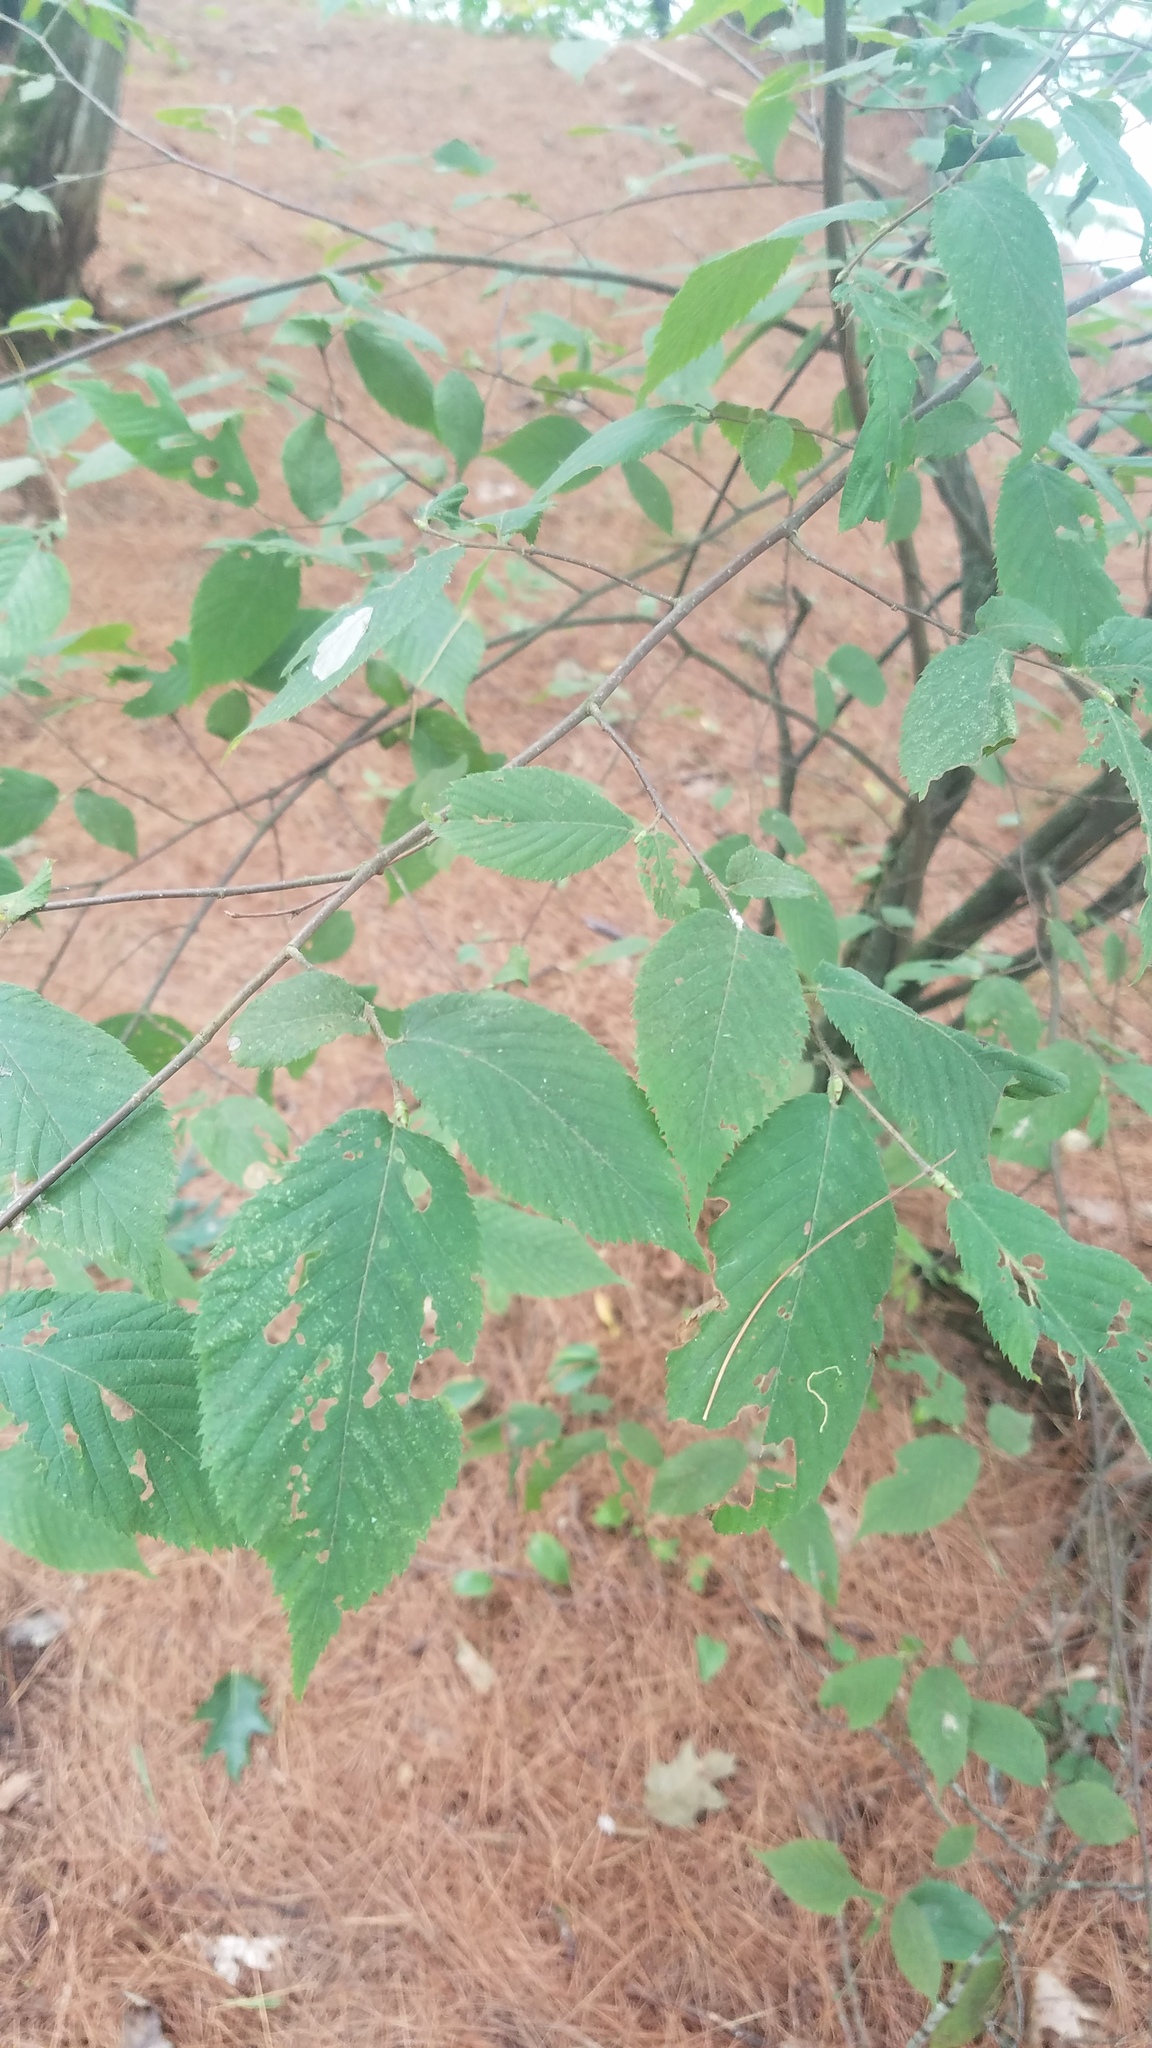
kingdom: Plantae
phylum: Tracheophyta
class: Magnoliopsida
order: Fagales
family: Betulaceae
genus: Ostrya
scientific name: Ostrya virginiana
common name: Ironwood
